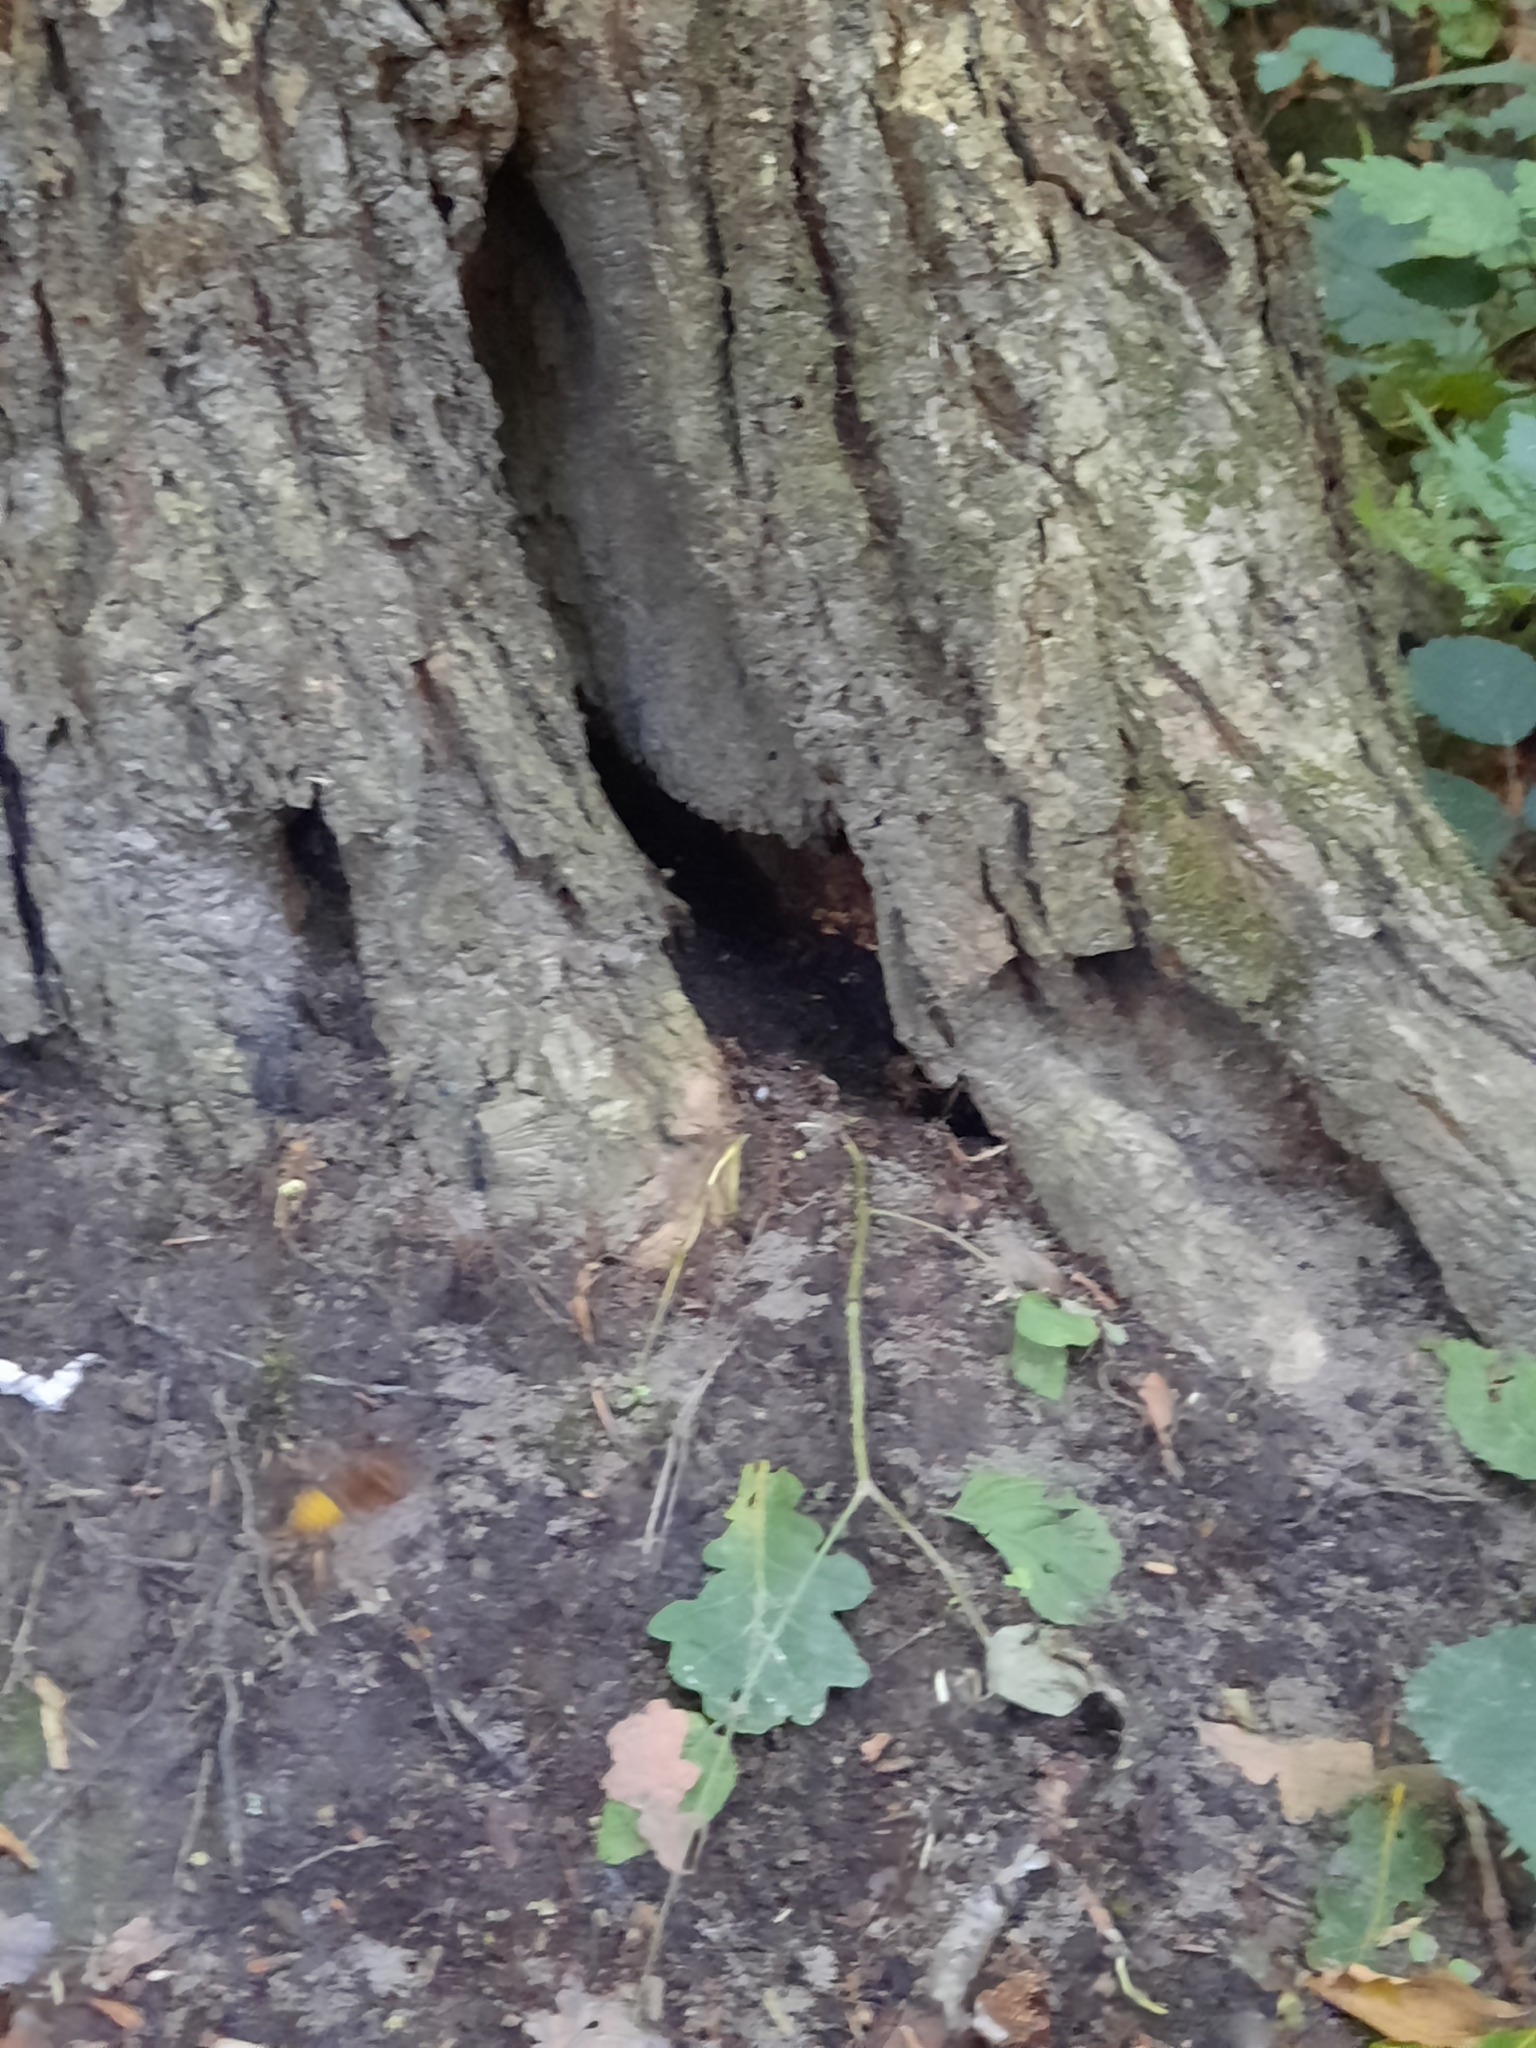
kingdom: Animalia
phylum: Arthropoda
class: Insecta
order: Hymenoptera
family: Vespidae
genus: Vespa
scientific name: Vespa crabro
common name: Hornet
